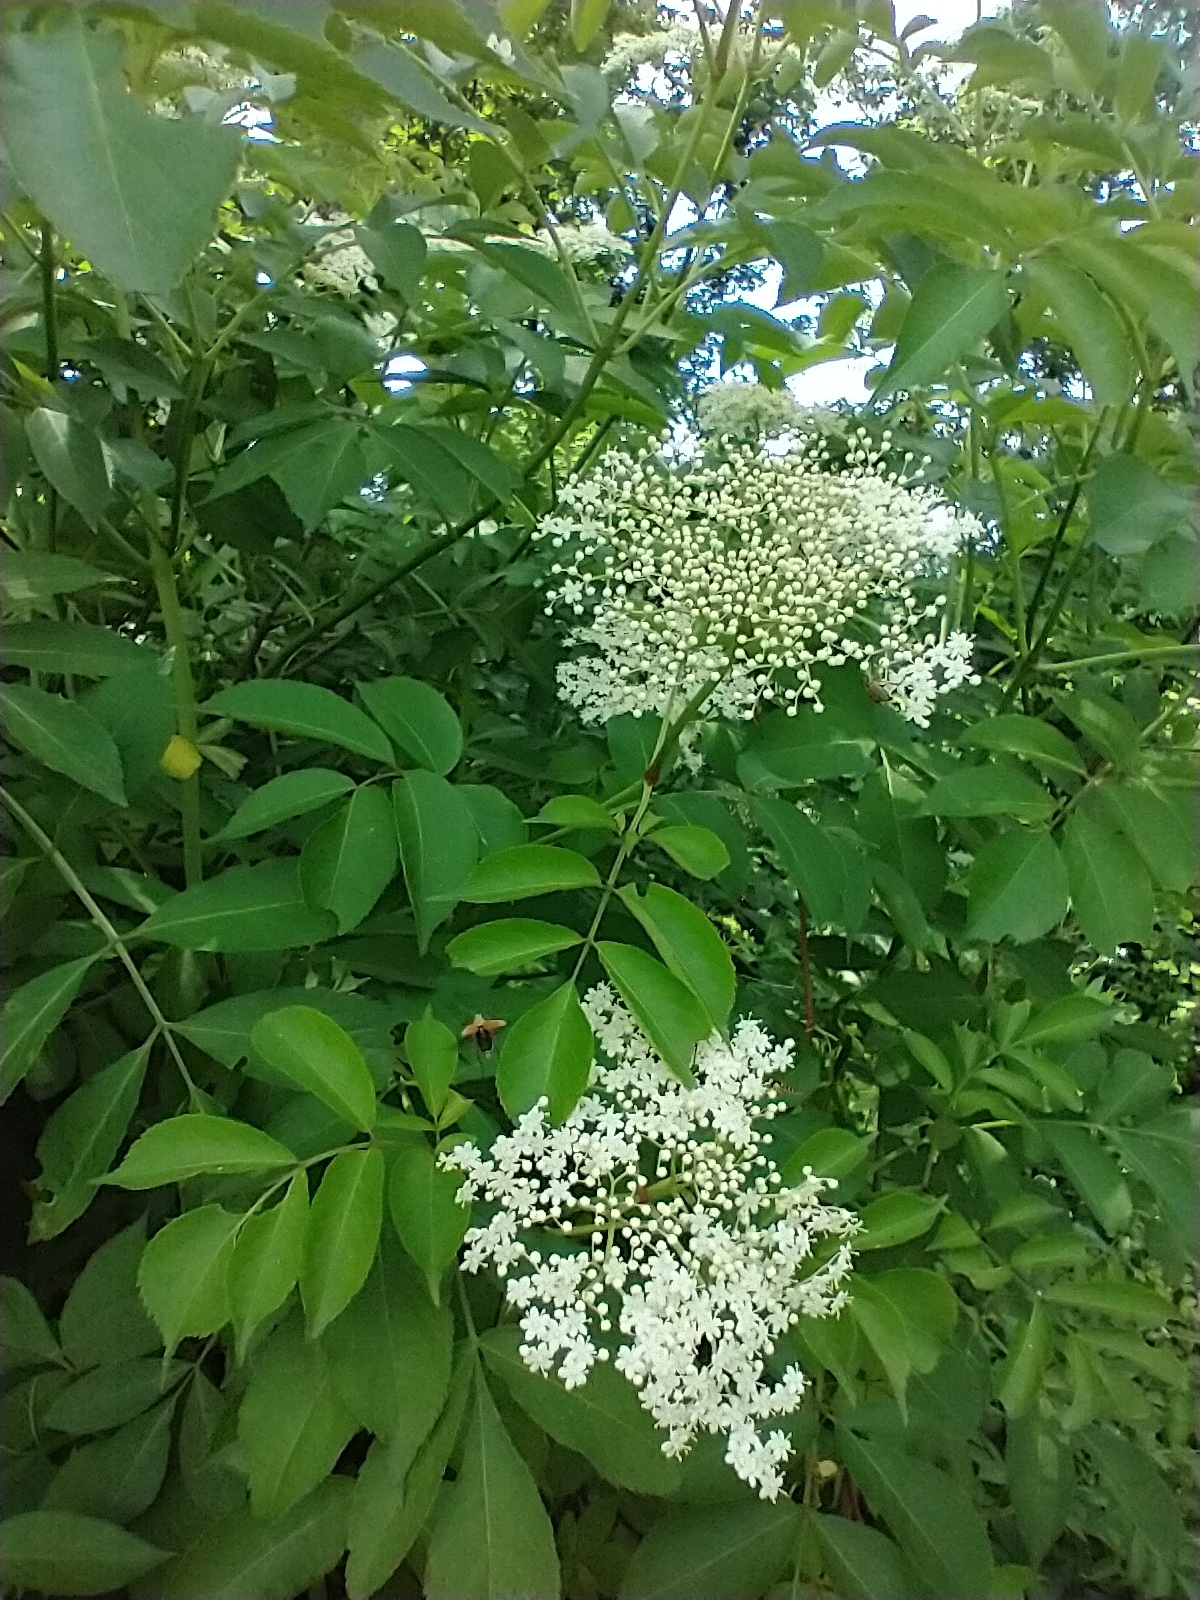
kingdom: Plantae
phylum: Tracheophyta
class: Magnoliopsida
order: Dipsacales
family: Viburnaceae
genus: Sambucus
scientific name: Sambucus canadensis
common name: American elder
